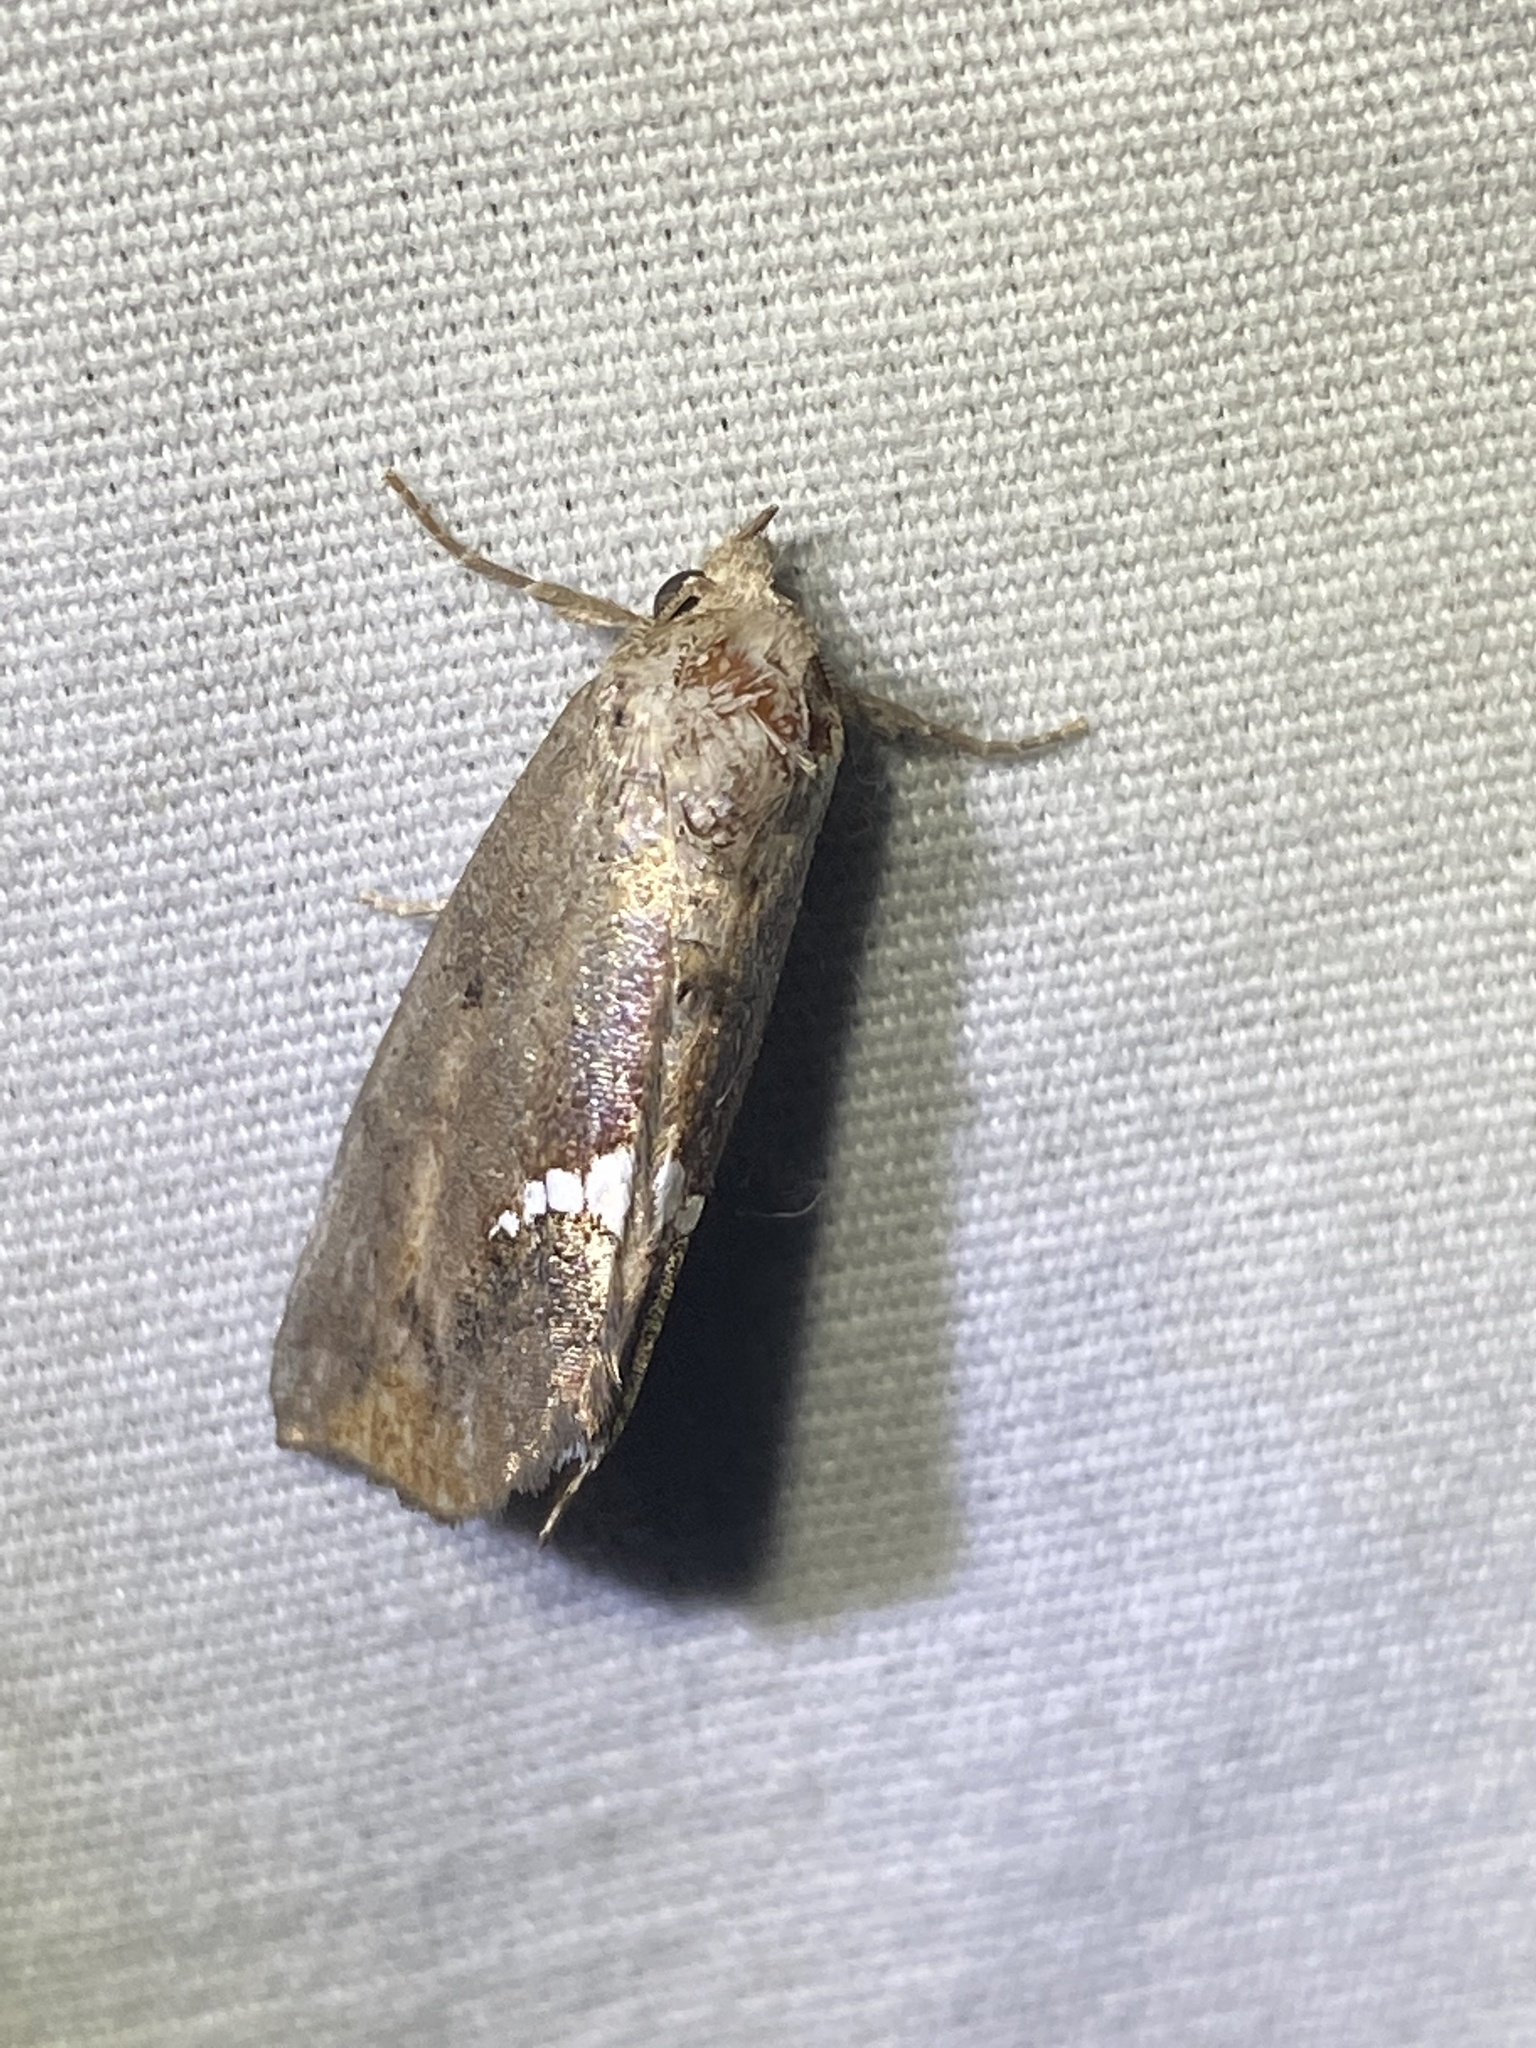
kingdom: Animalia
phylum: Arthropoda
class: Insecta
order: Lepidoptera
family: Erebidae
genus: Hypsoropha
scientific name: Hypsoropha hormos
